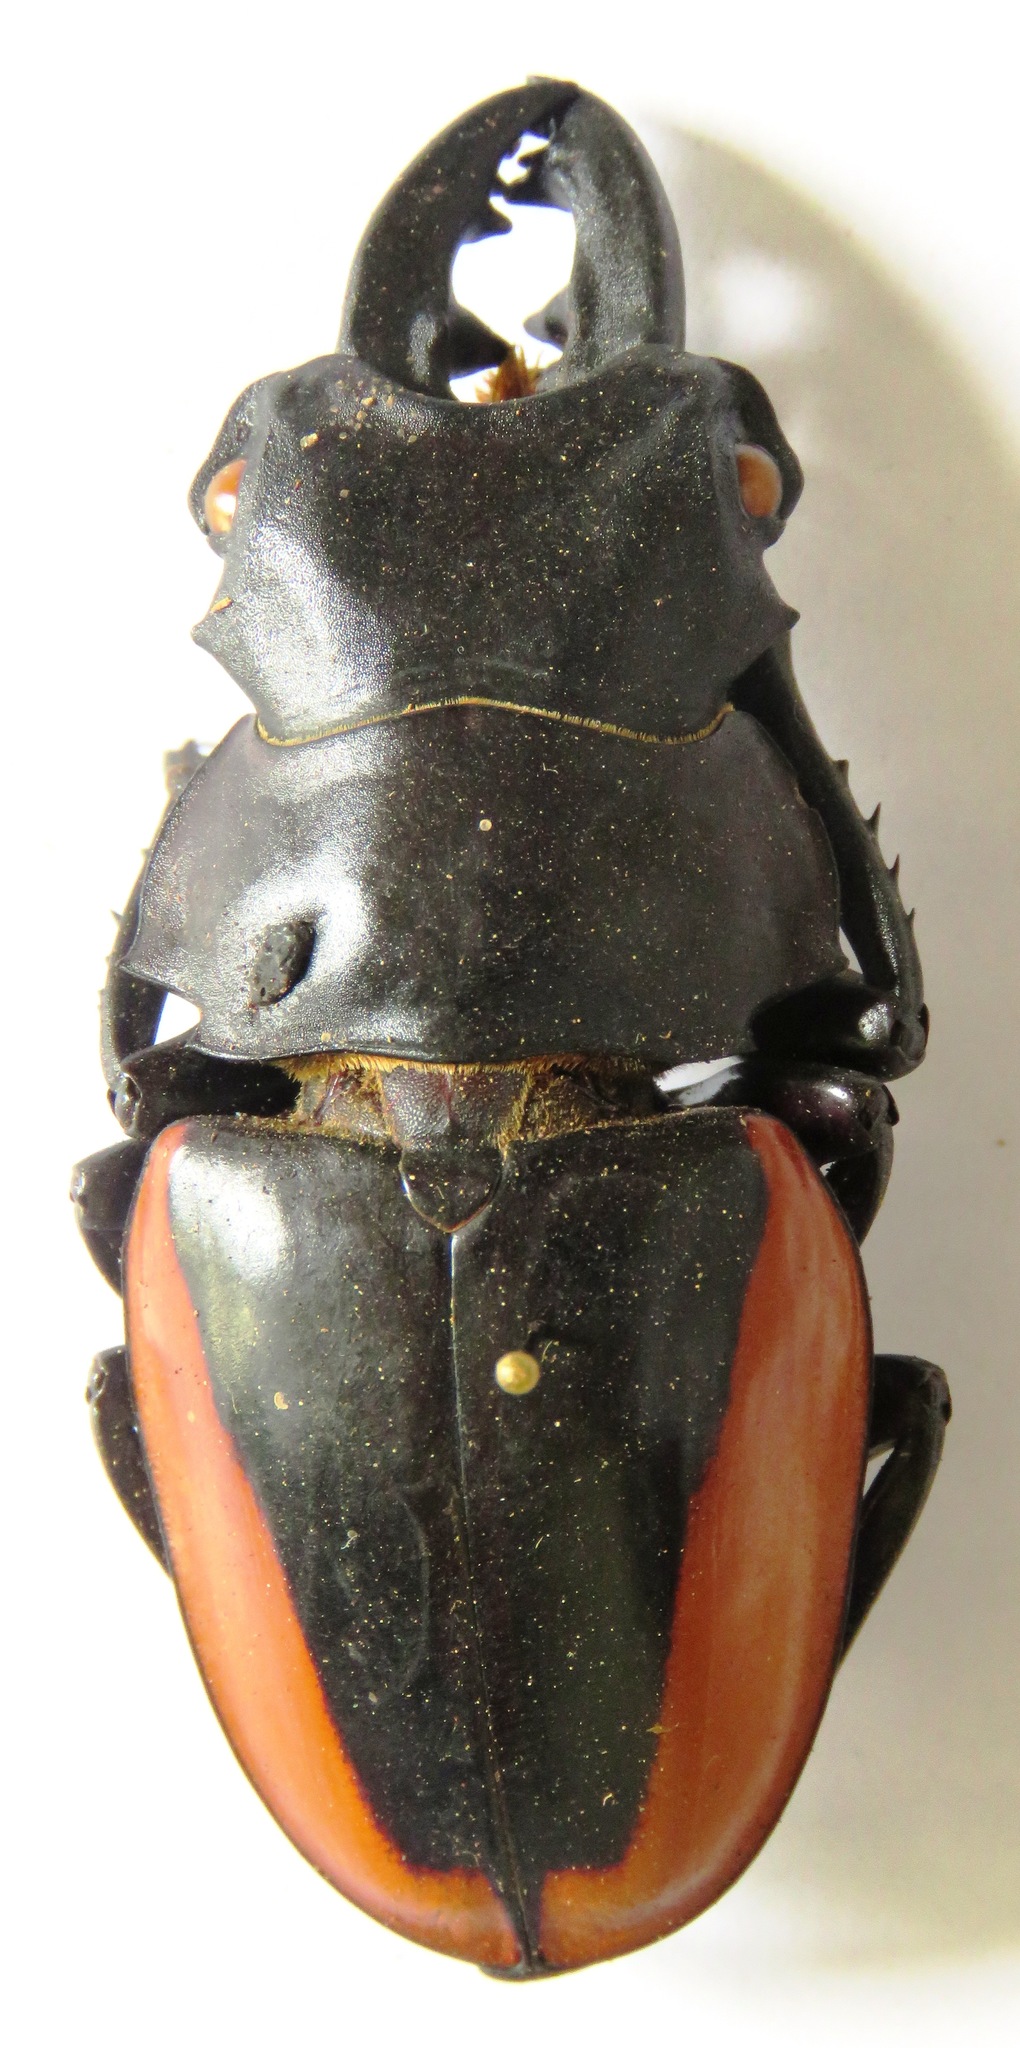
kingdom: Animalia
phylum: Arthropoda
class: Insecta
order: Coleoptera
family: Lucanidae
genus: Odontolabis
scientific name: Odontolabis cuvera
